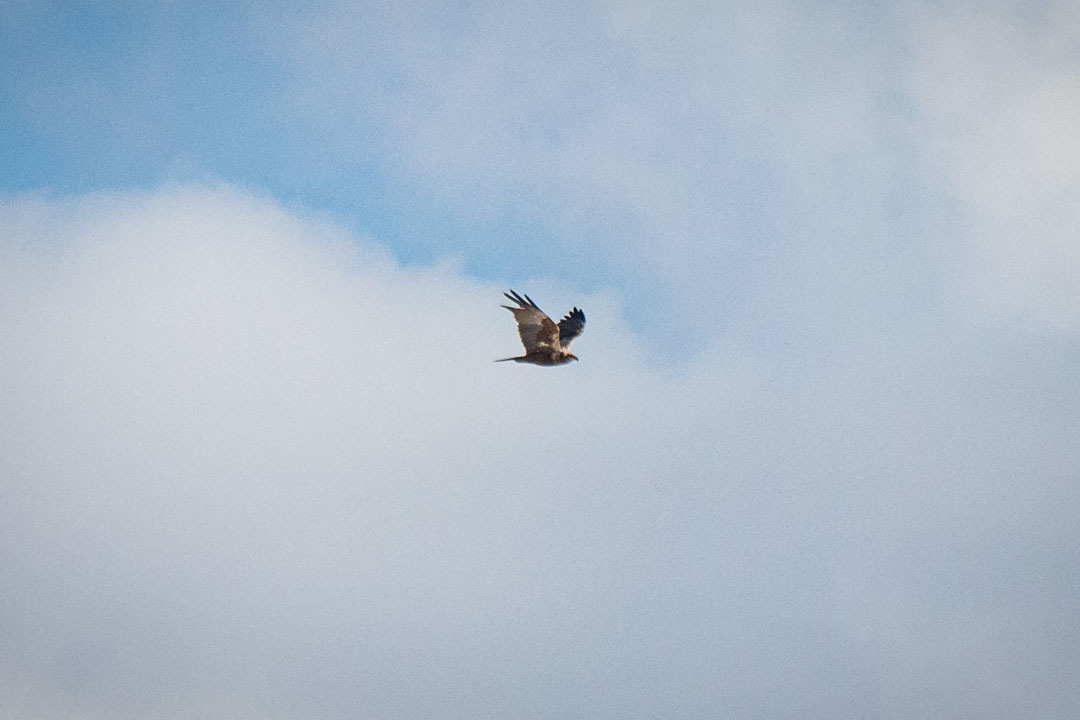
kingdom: Animalia
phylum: Chordata
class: Aves
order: Accipitriformes
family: Accipitridae
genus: Circus
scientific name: Circus aeruginosus
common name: Western marsh harrier
